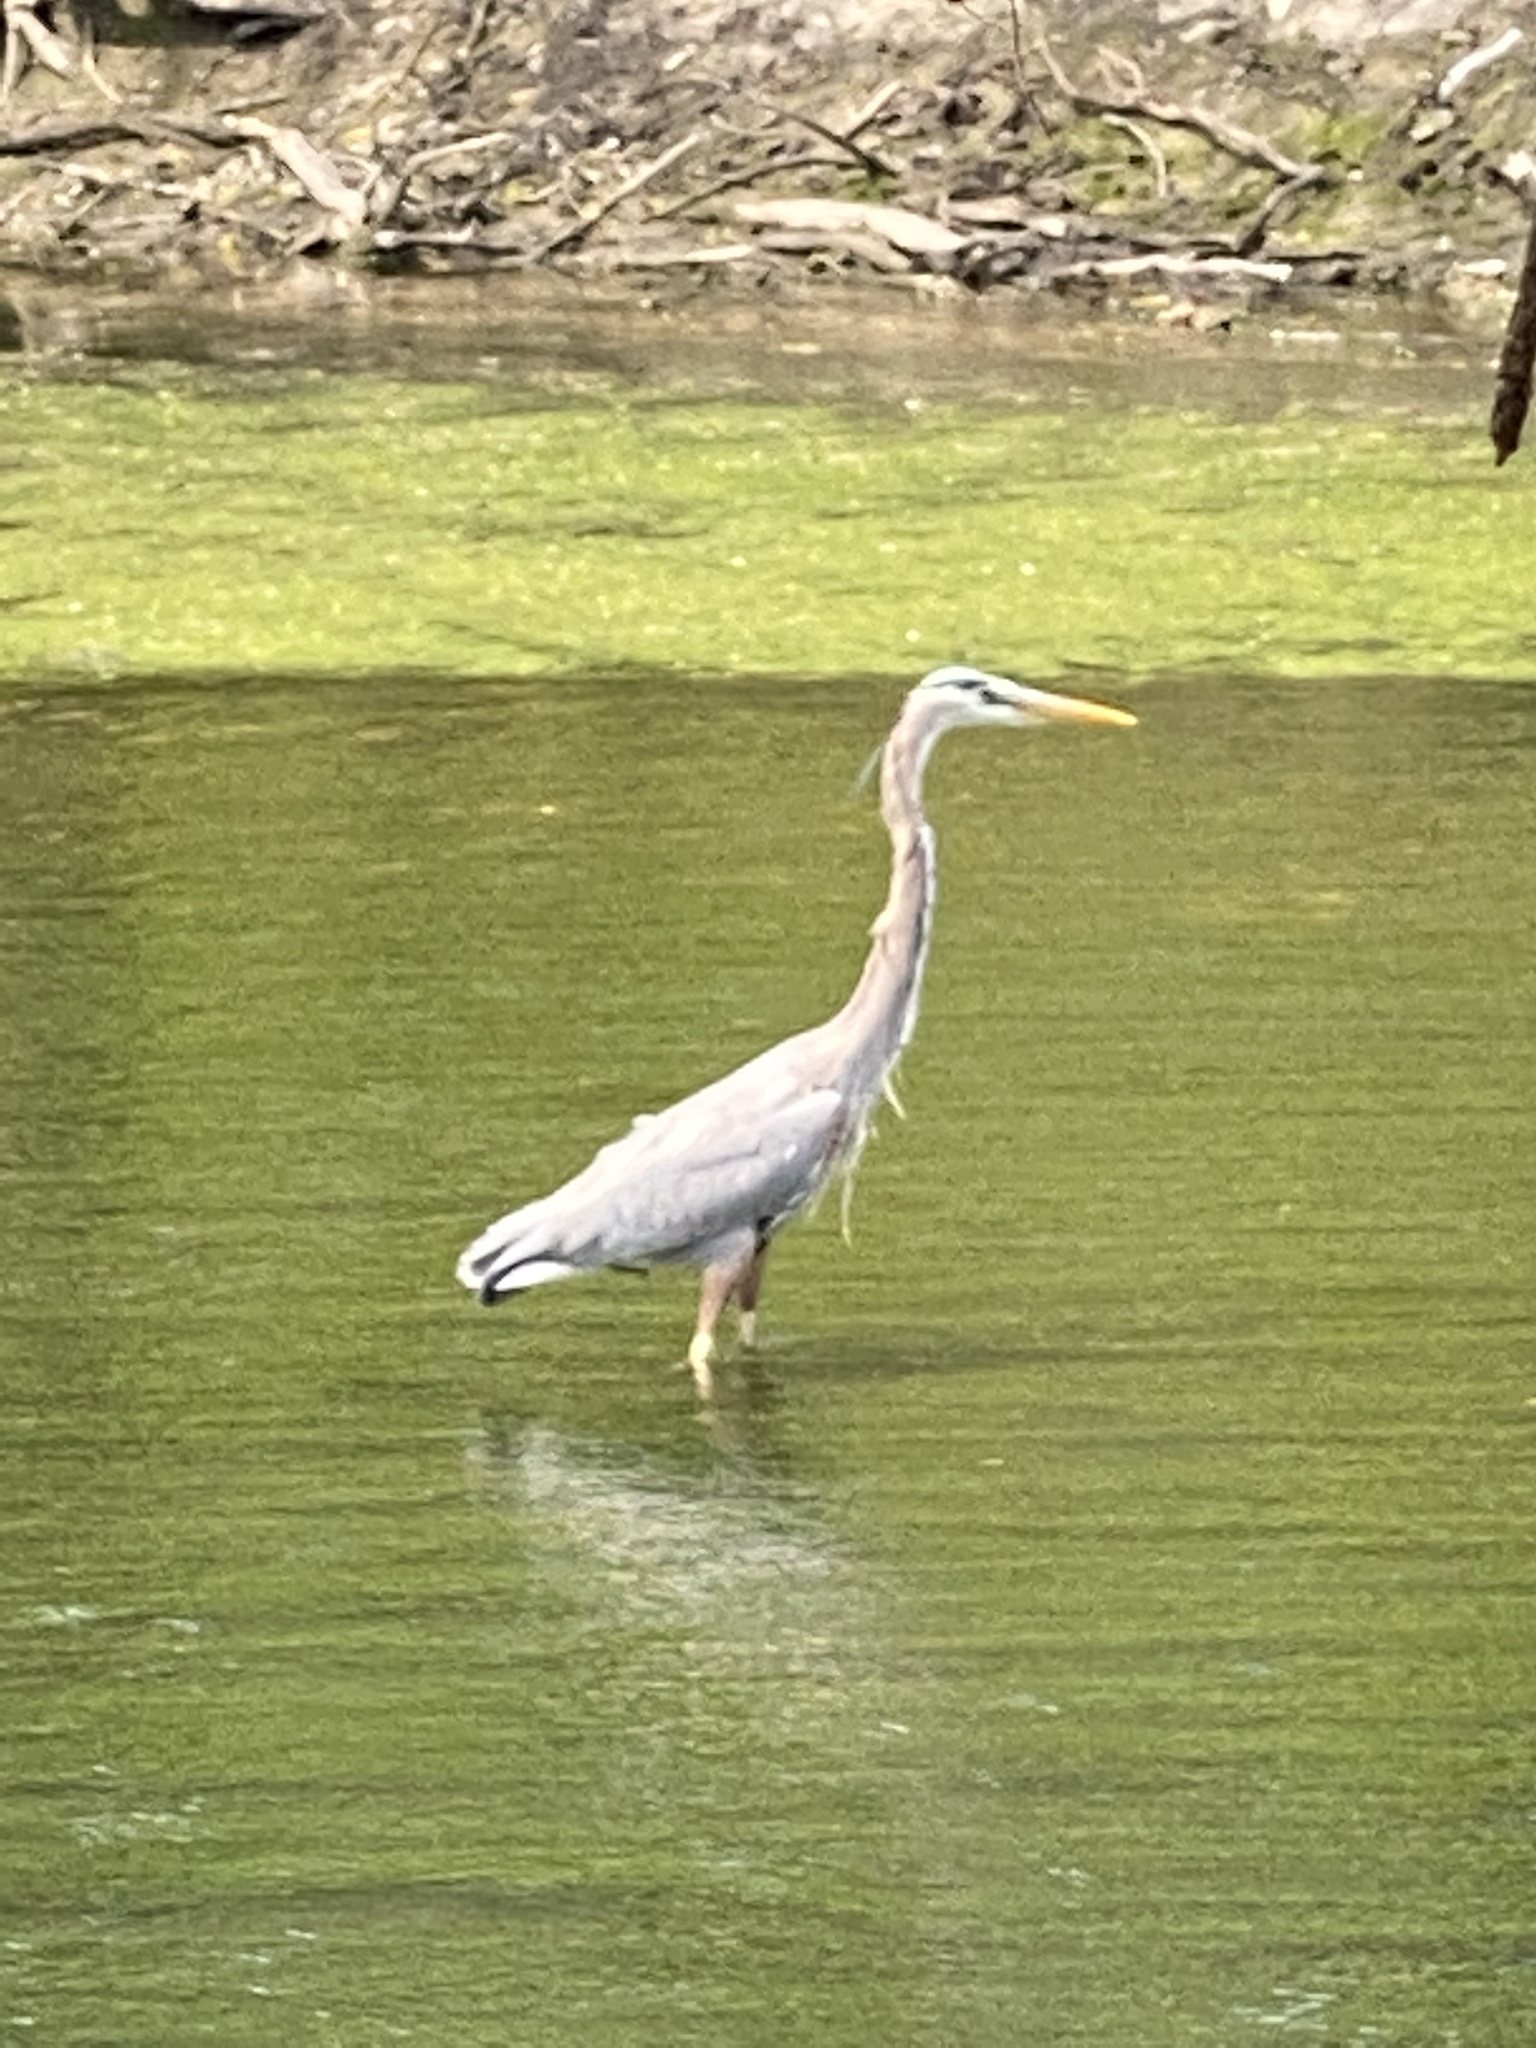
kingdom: Animalia
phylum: Chordata
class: Aves
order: Pelecaniformes
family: Ardeidae
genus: Ardea
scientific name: Ardea herodias
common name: Great blue heron
